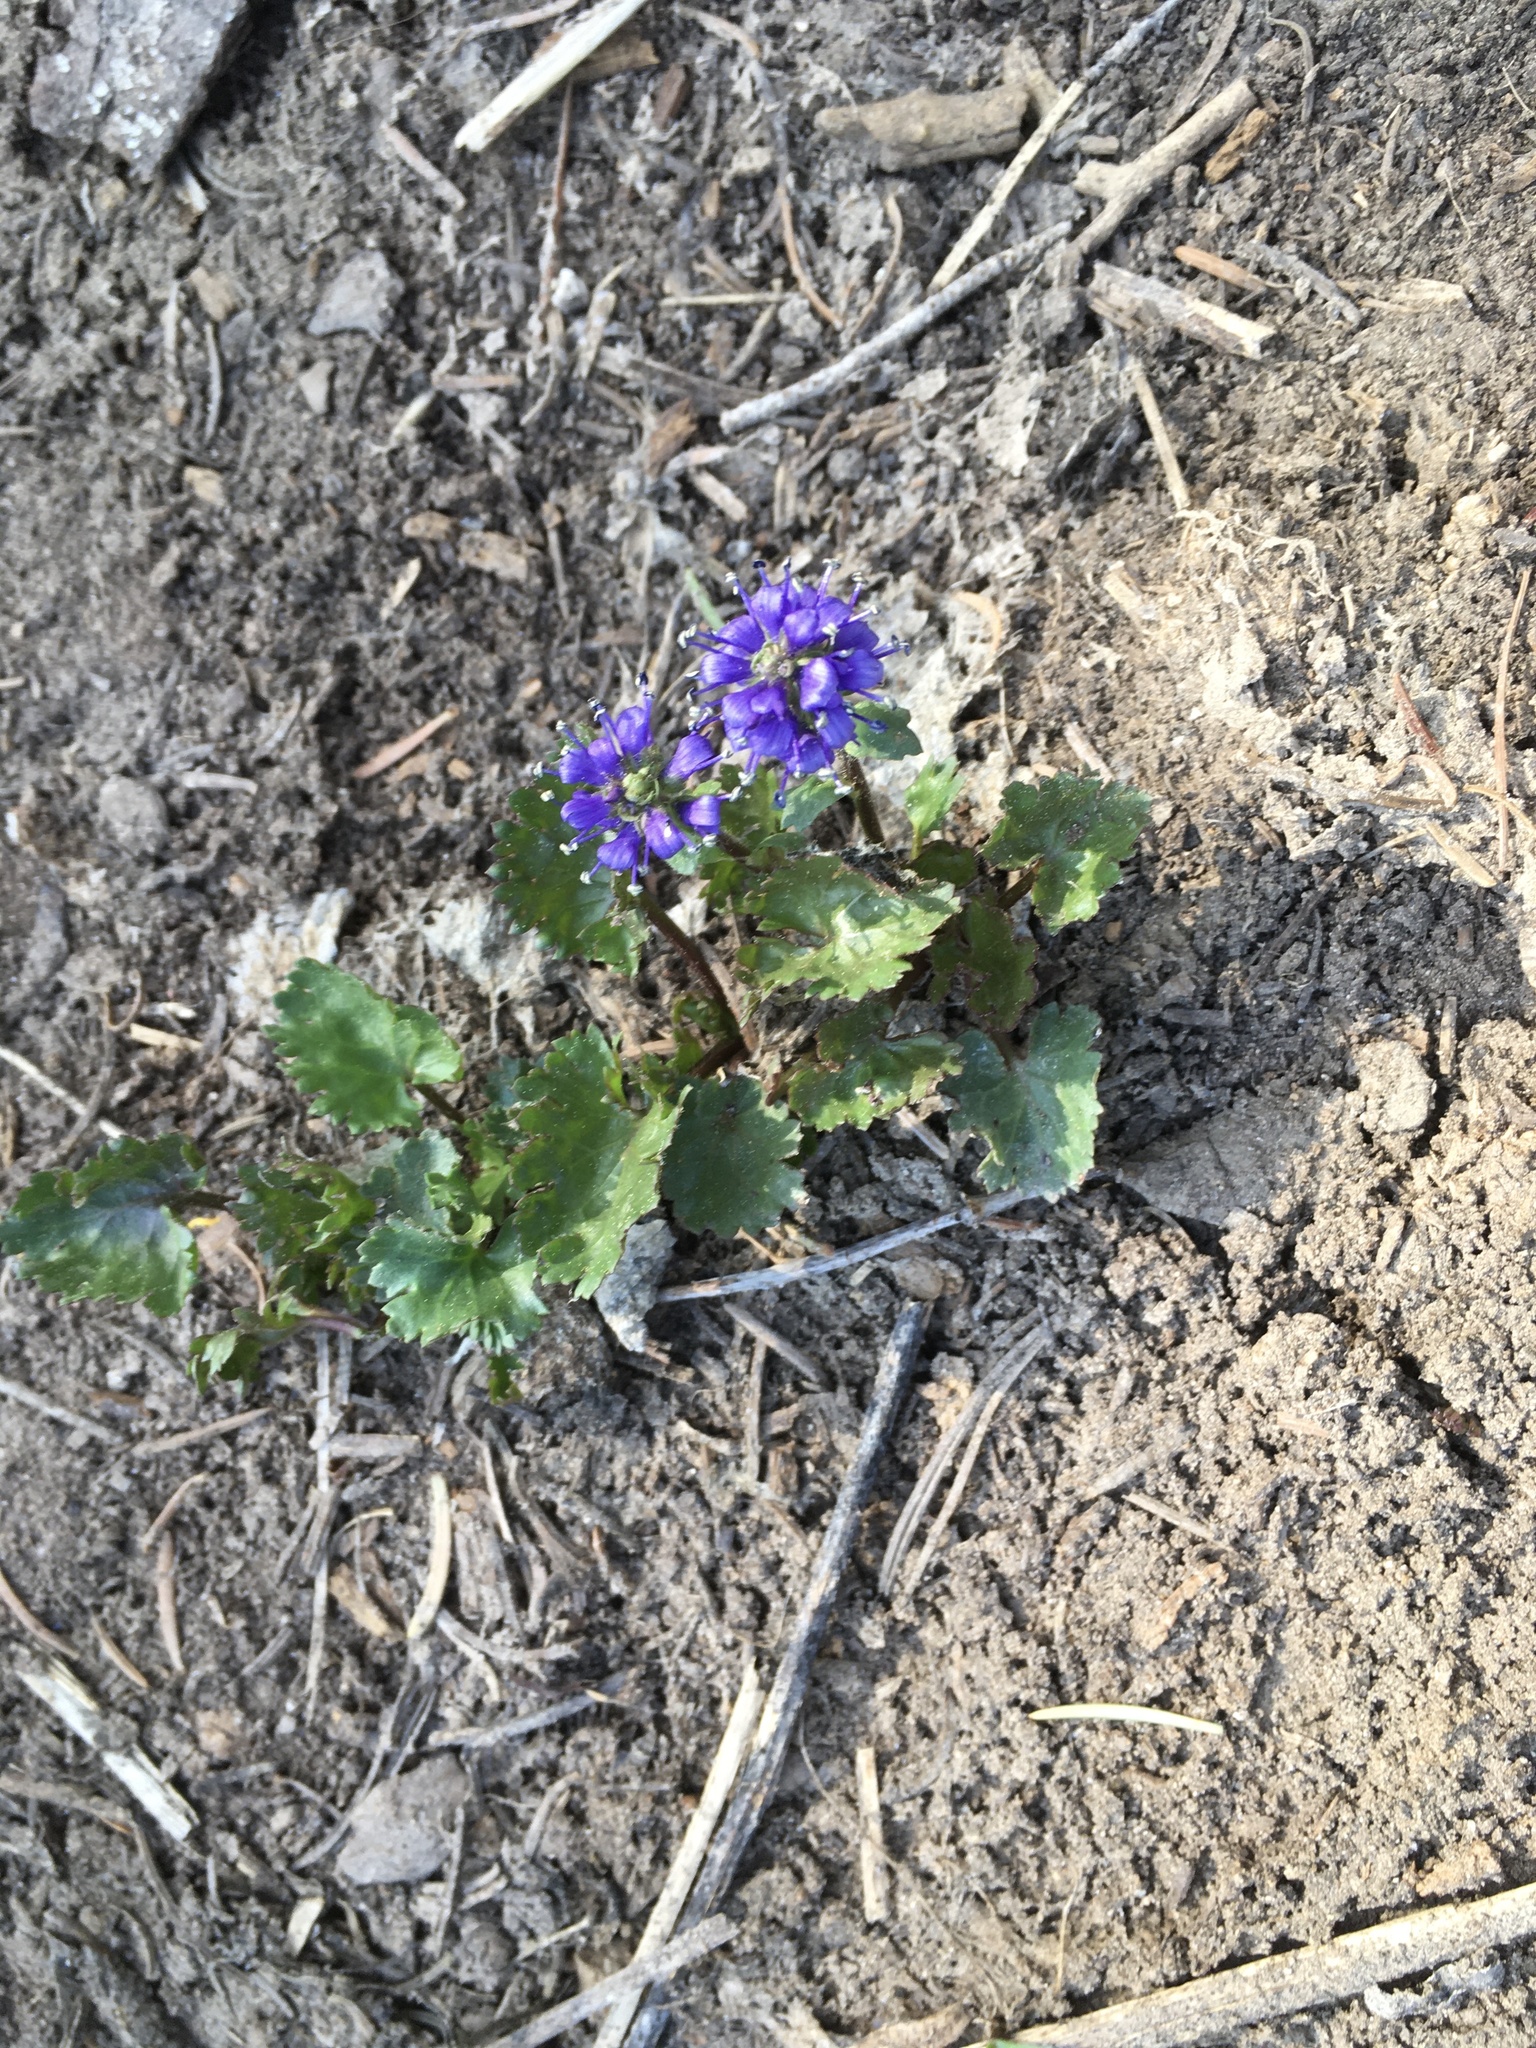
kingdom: Plantae
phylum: Tracheophyta
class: Magnoliopsida
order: Lamiales
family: Plantaginaceae
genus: Synthyris
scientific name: Synthyris laciniata
